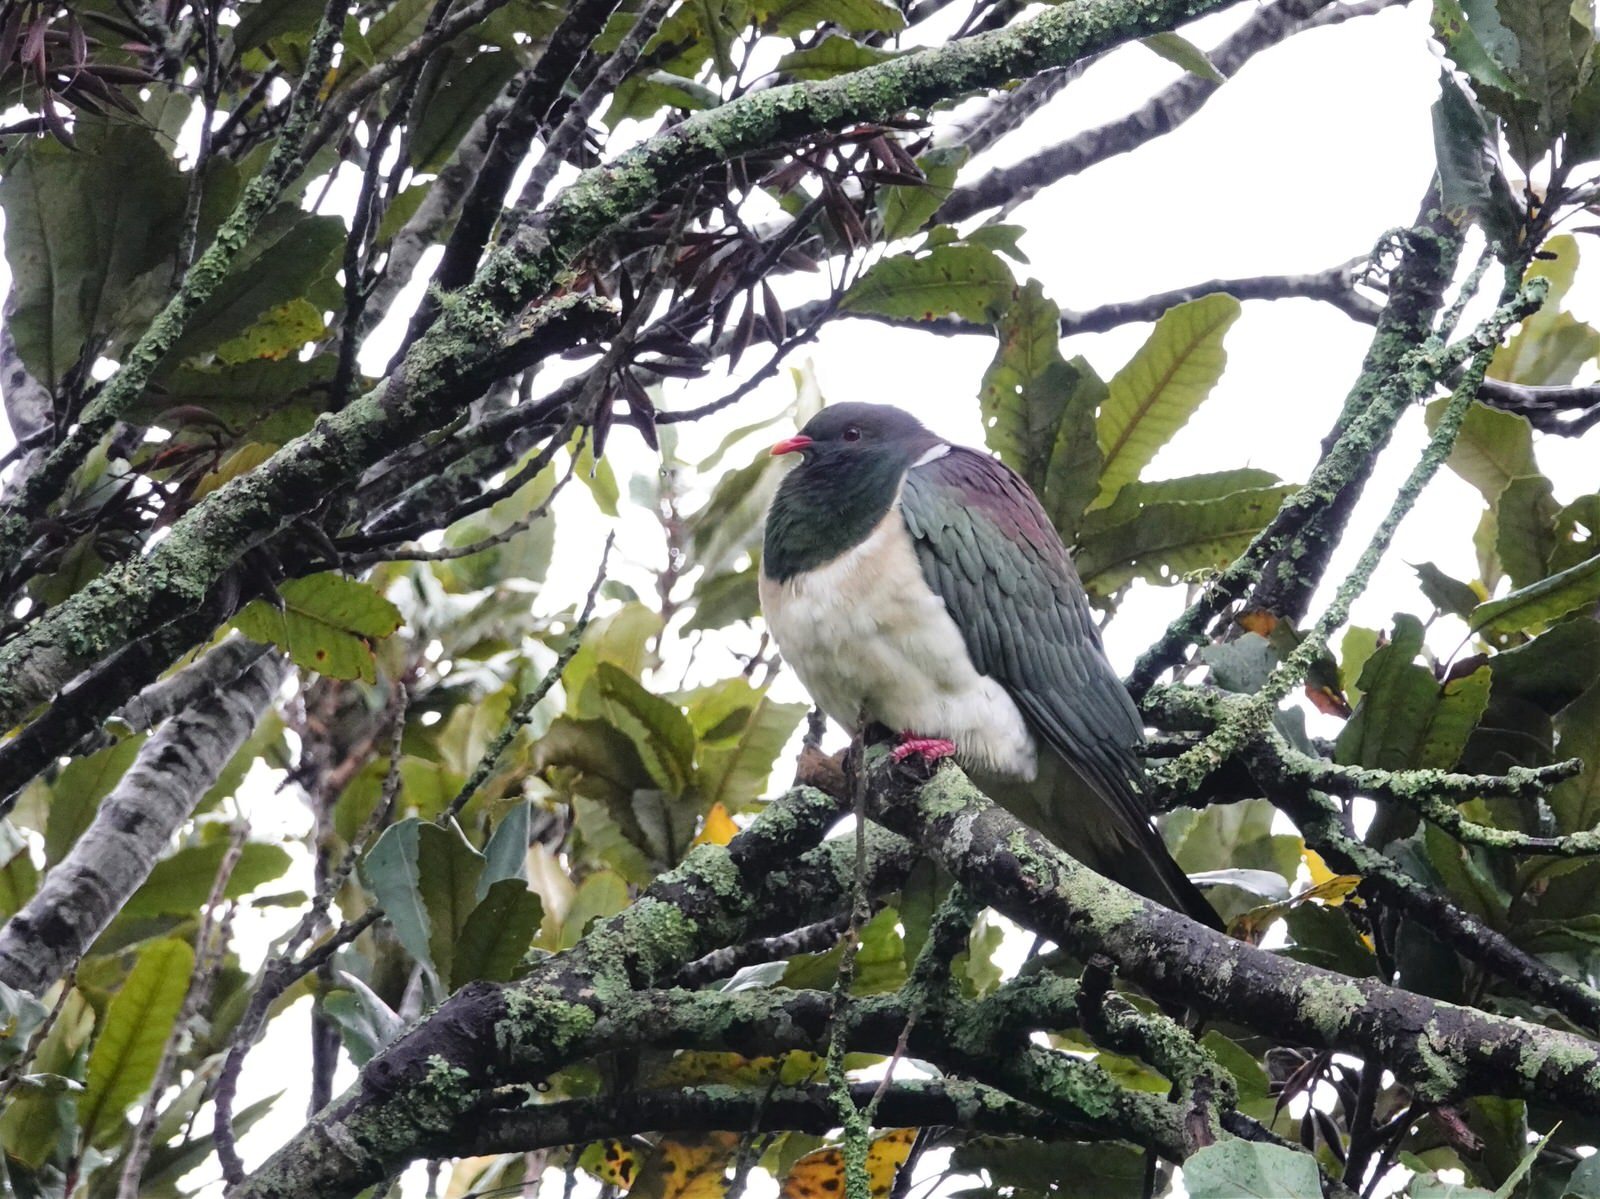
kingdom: Animalia
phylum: Chordata
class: Aves
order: Columbiformes
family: Columbidae
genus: Hemiphaga
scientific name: Hemiphaga novaeseelandiae
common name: New zealand pigeon
